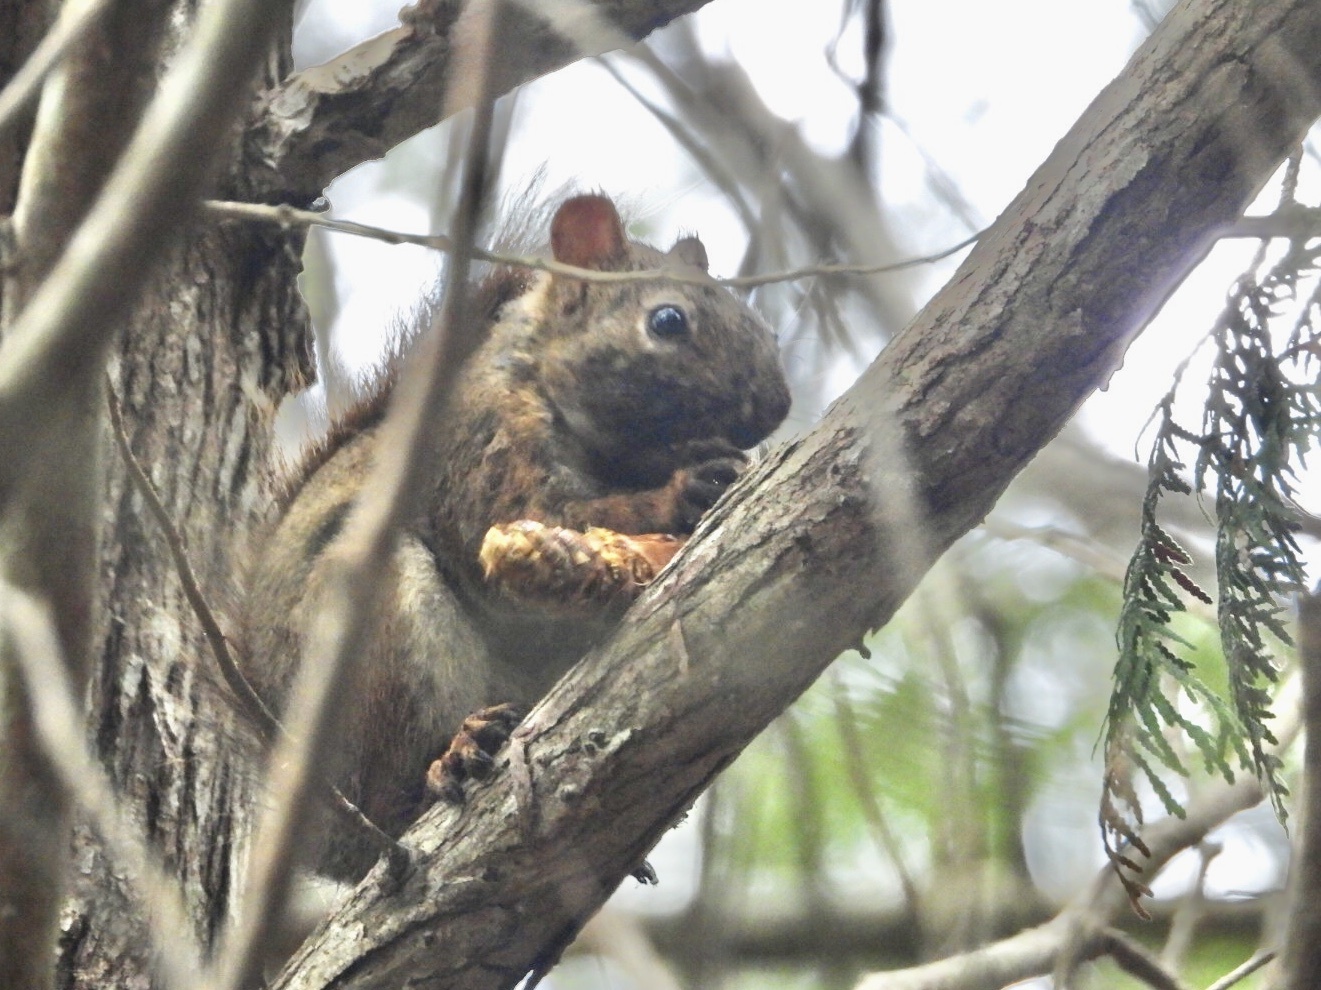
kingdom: Animalia
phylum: Chordata
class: Mammalia
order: Rodentia
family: Sciuridae
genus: Tamiasciurus
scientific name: Tamiasciurus hudsonicus
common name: Red squirrel
